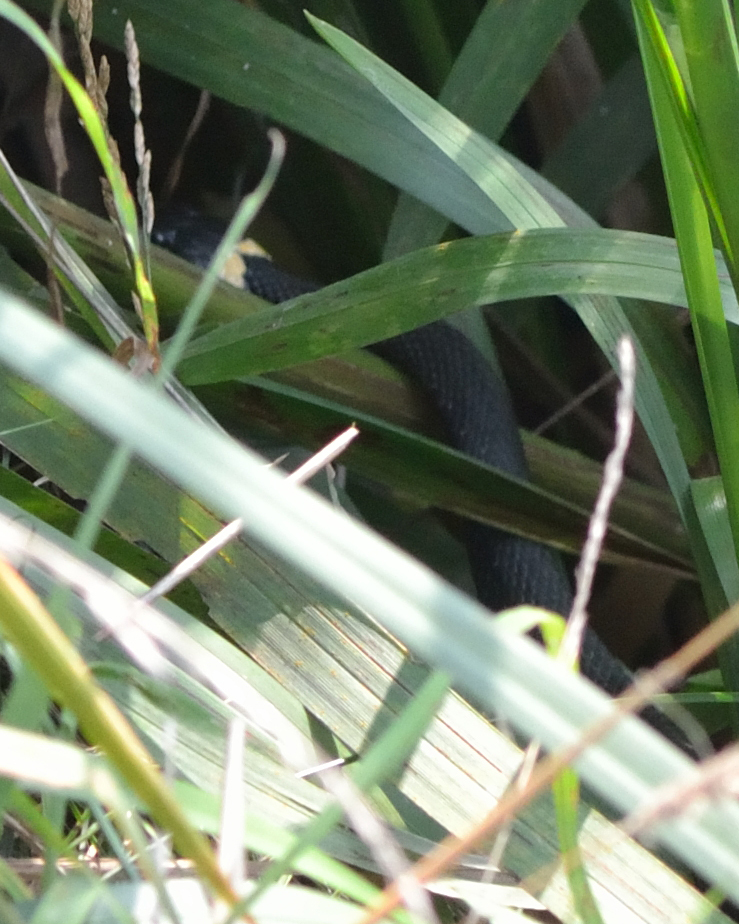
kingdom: Animalia
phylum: Chordata
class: Squamata
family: Colubridae
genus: Natrix
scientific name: Natrix natrix
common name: Grass snake
